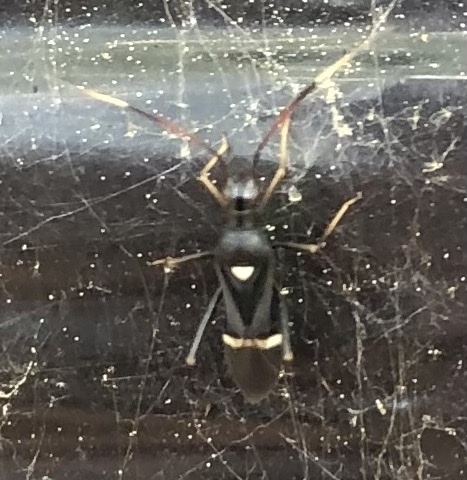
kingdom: Animalia
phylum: Arthropoda
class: Insecta
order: Hemiptera
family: Miridae
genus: Pseudoxenetus
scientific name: Pseudoxenetus regalis
